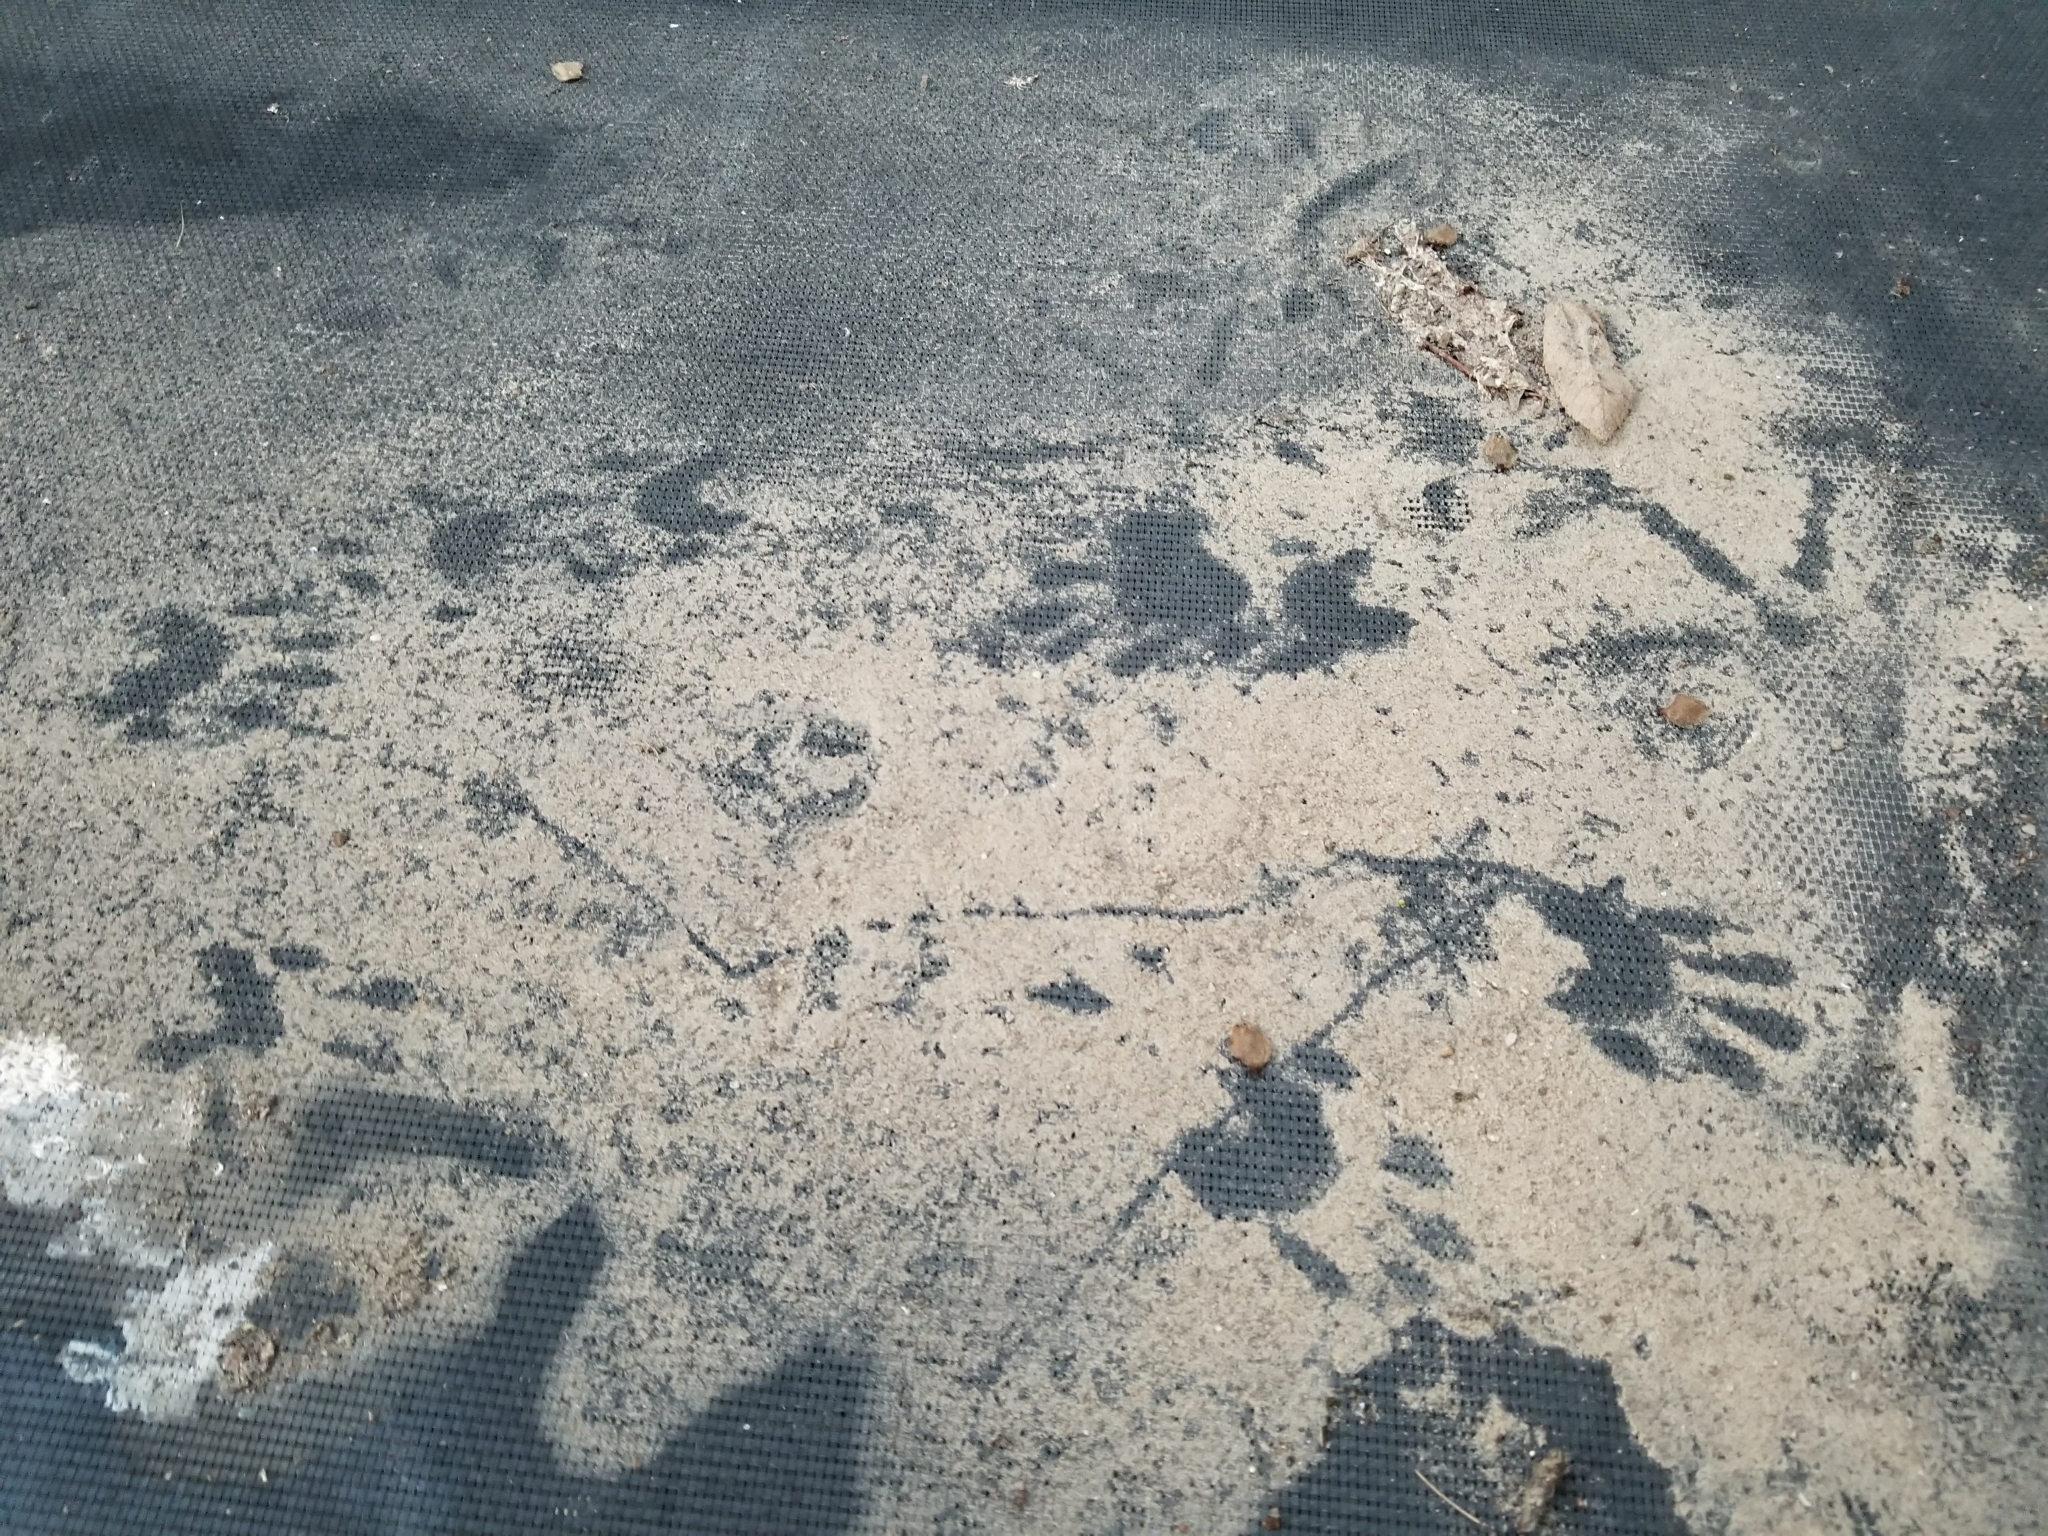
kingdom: Animalia
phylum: Chordata
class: Mammalia
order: Carnivora
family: Procyonidae
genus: Procyon
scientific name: Procyon lotor
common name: Raccoon
